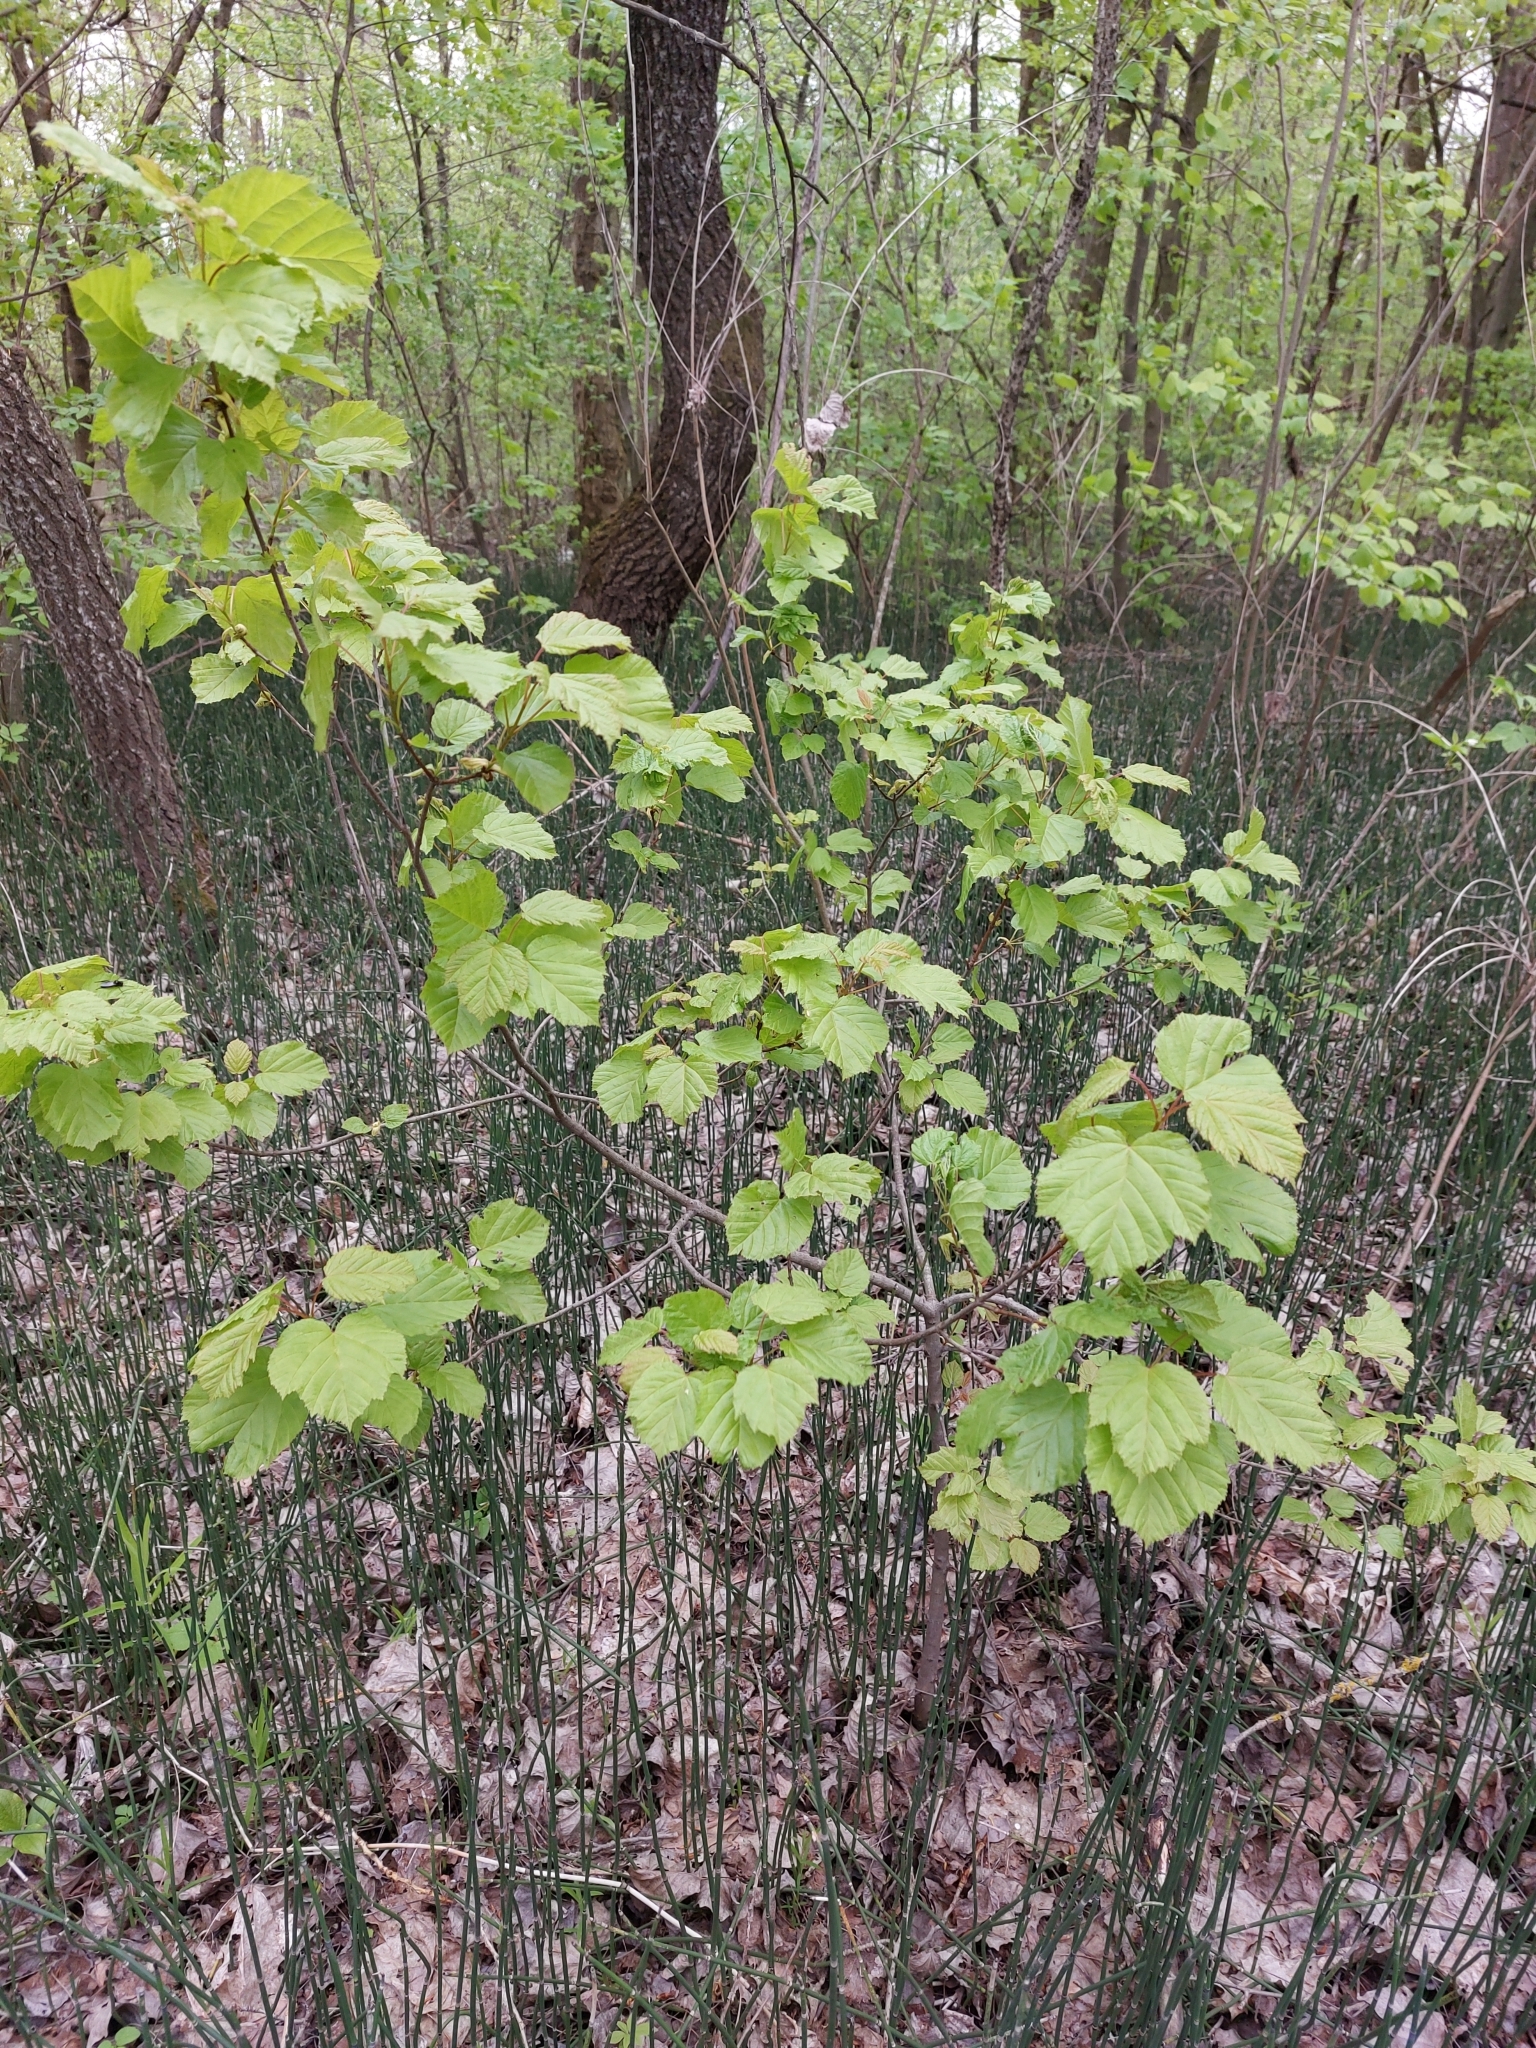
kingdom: Plantae
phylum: Tracheophyta
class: Magnoliopsida
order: Sapindales
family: Sapindaceae
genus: Acer
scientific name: Acer tataricum
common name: Tartar maple
